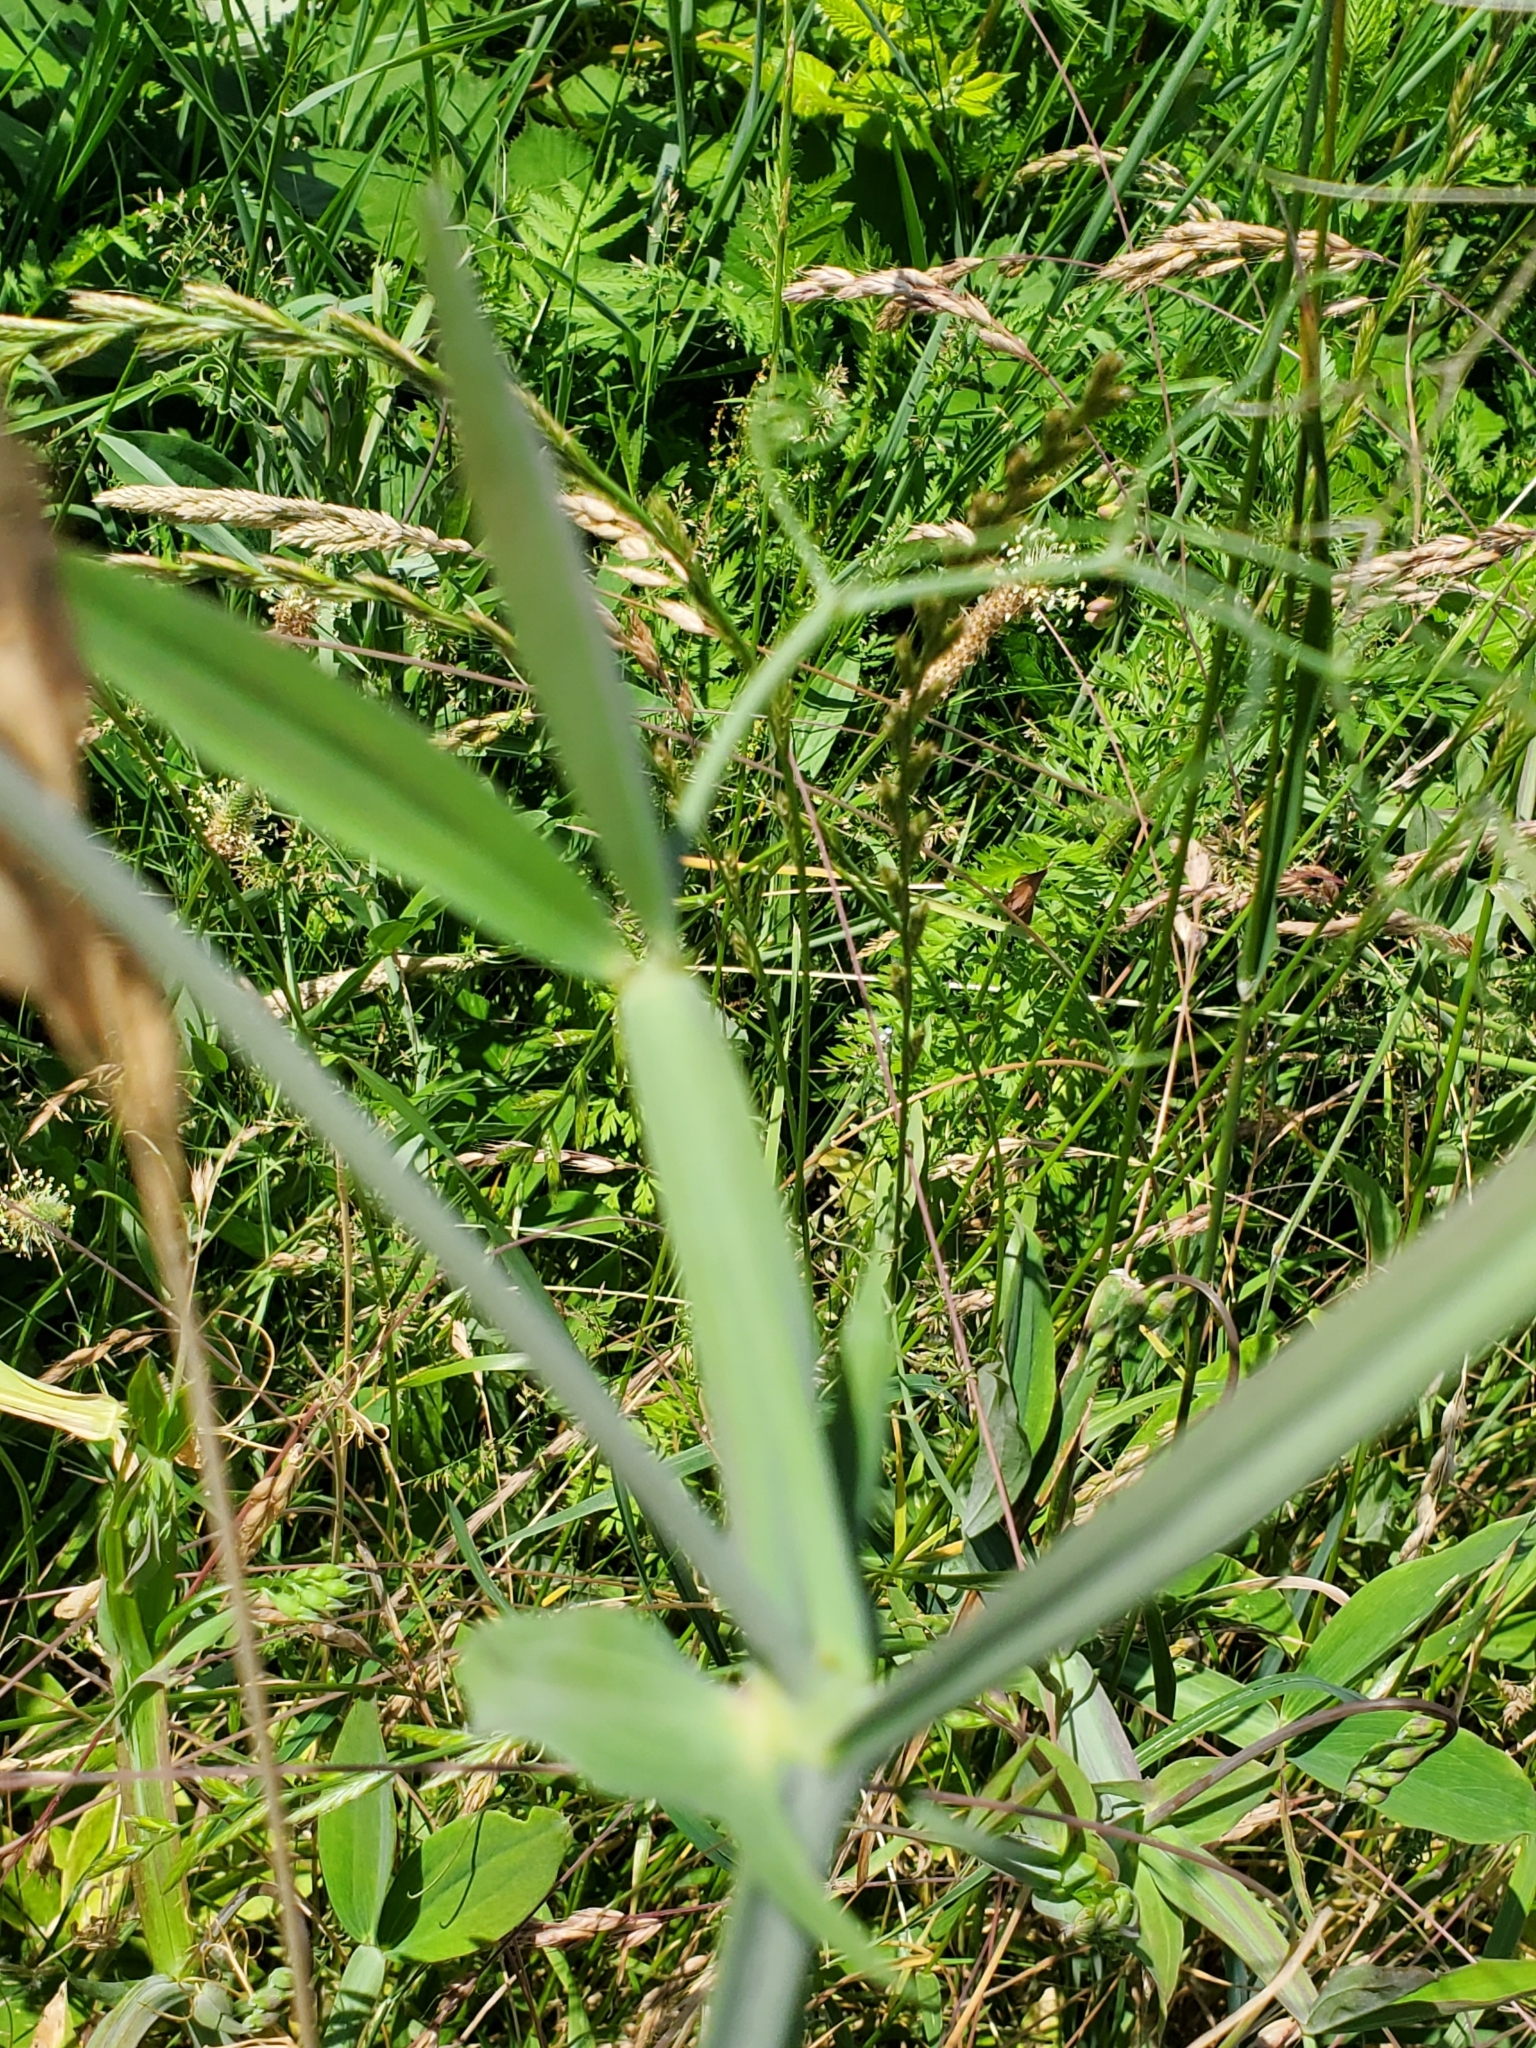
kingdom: Plantae
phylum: Tracheophyta
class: Magnoliopsida
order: Fabales
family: Fabaceae
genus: Lathyrus
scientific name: Lathyrus latifolius
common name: Perennial pea
